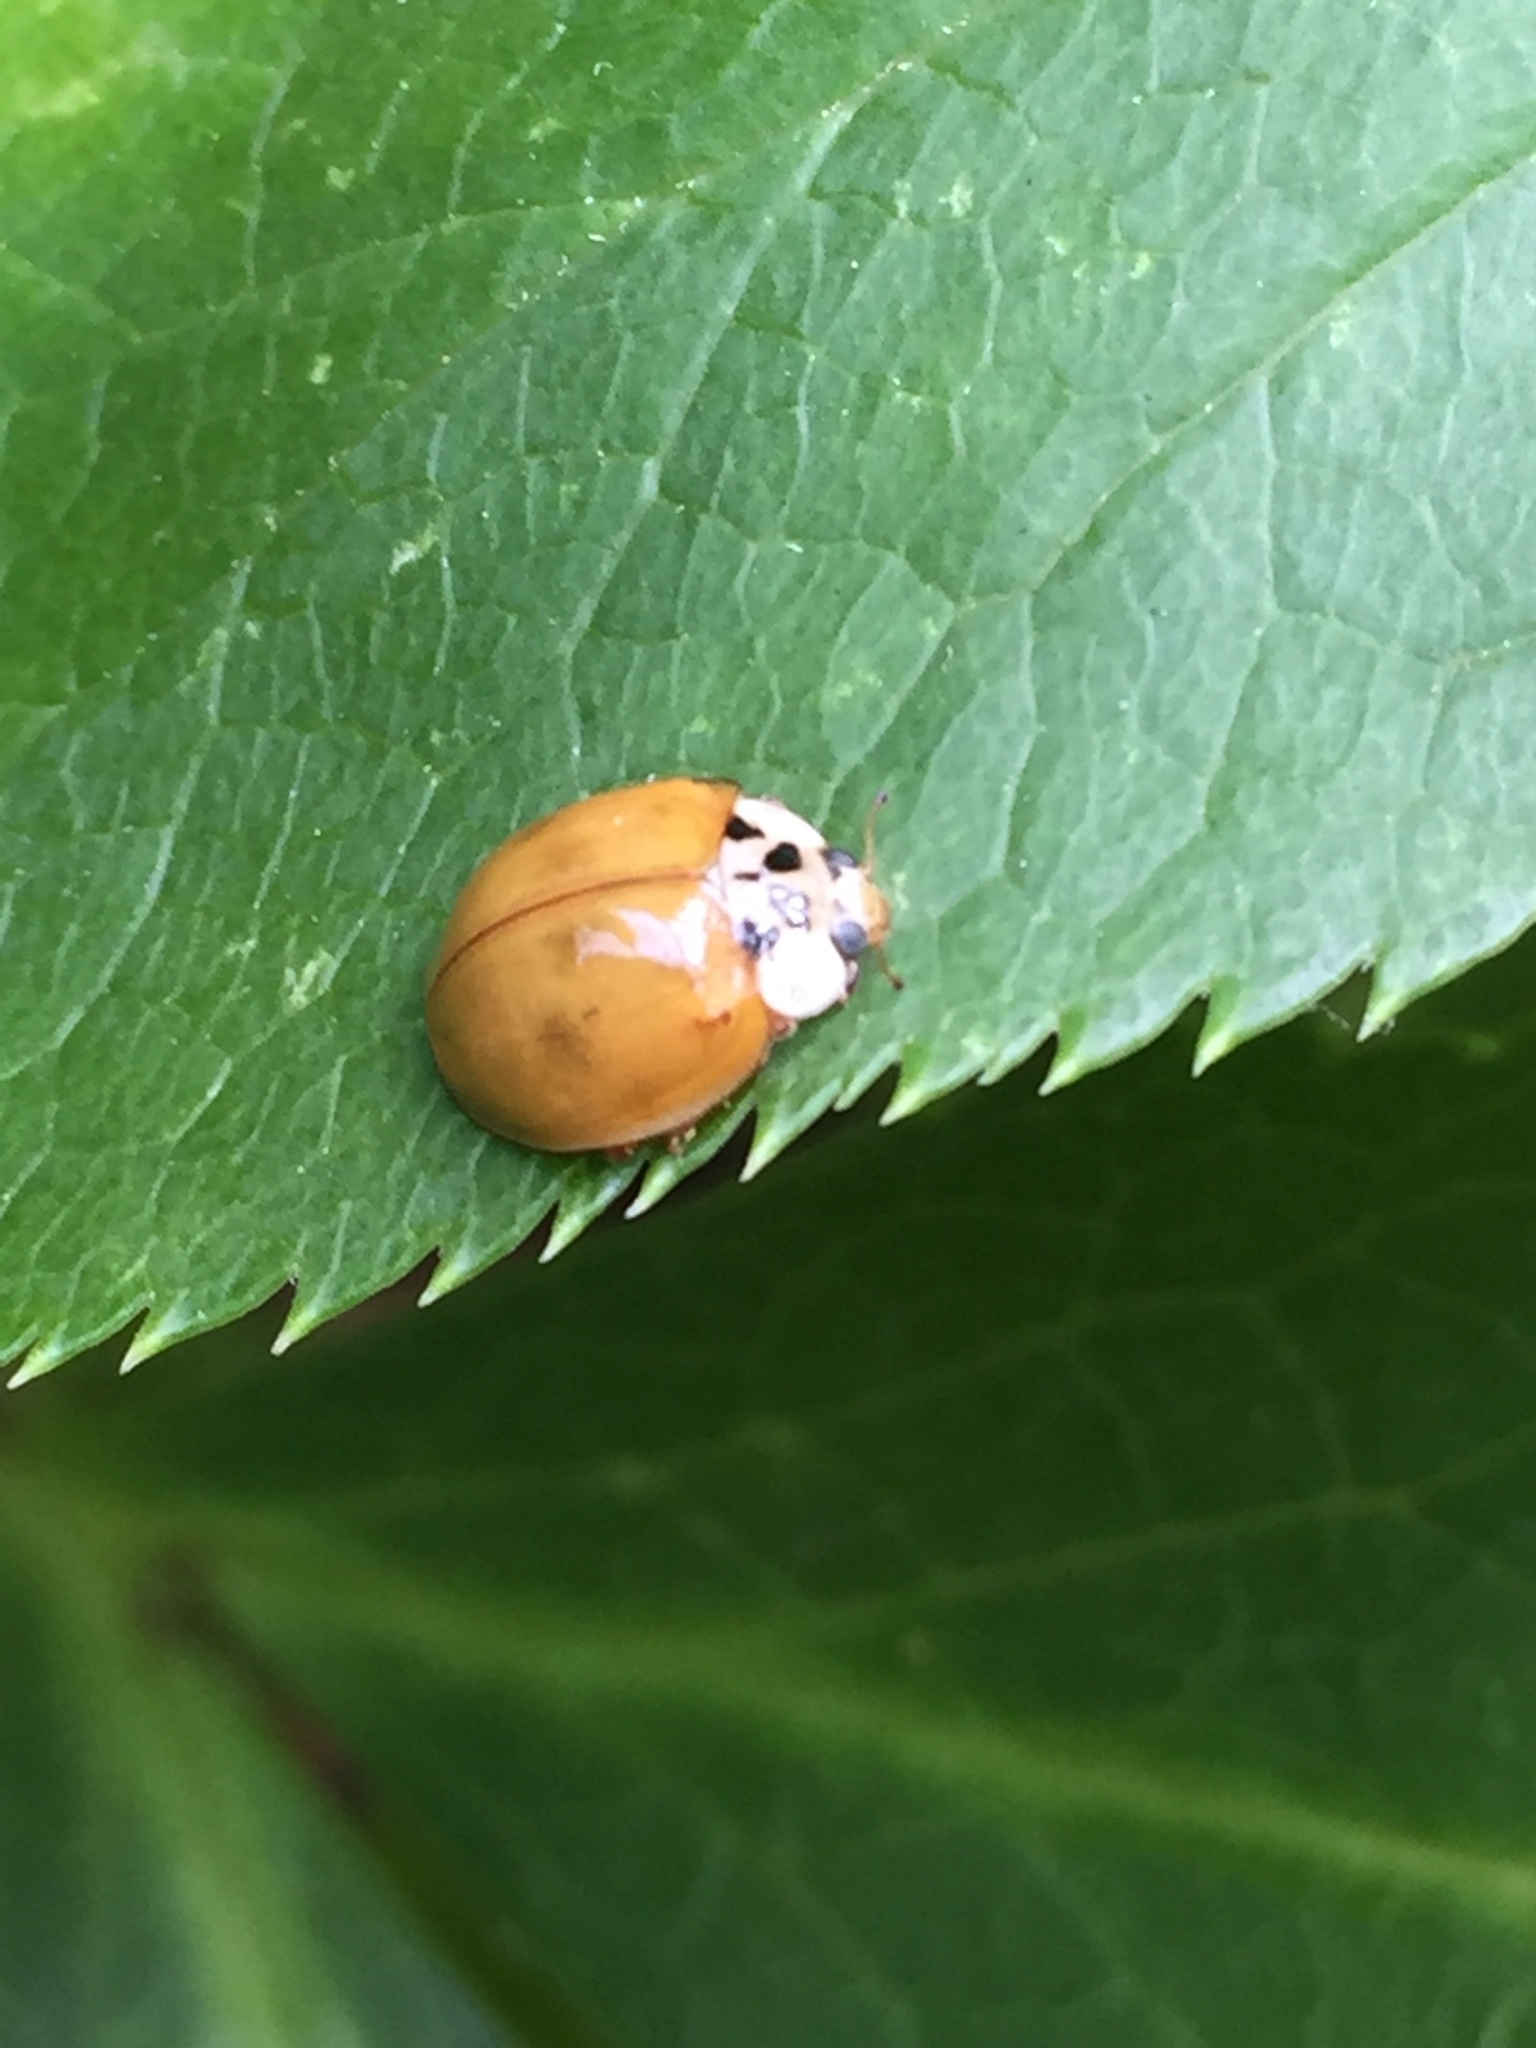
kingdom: Animalia
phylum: Arthropoda
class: Insecta
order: Coleoptera
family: Coccinellidae
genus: Harmonia
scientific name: Harmonia axyridis
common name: Harlequin ladybird
